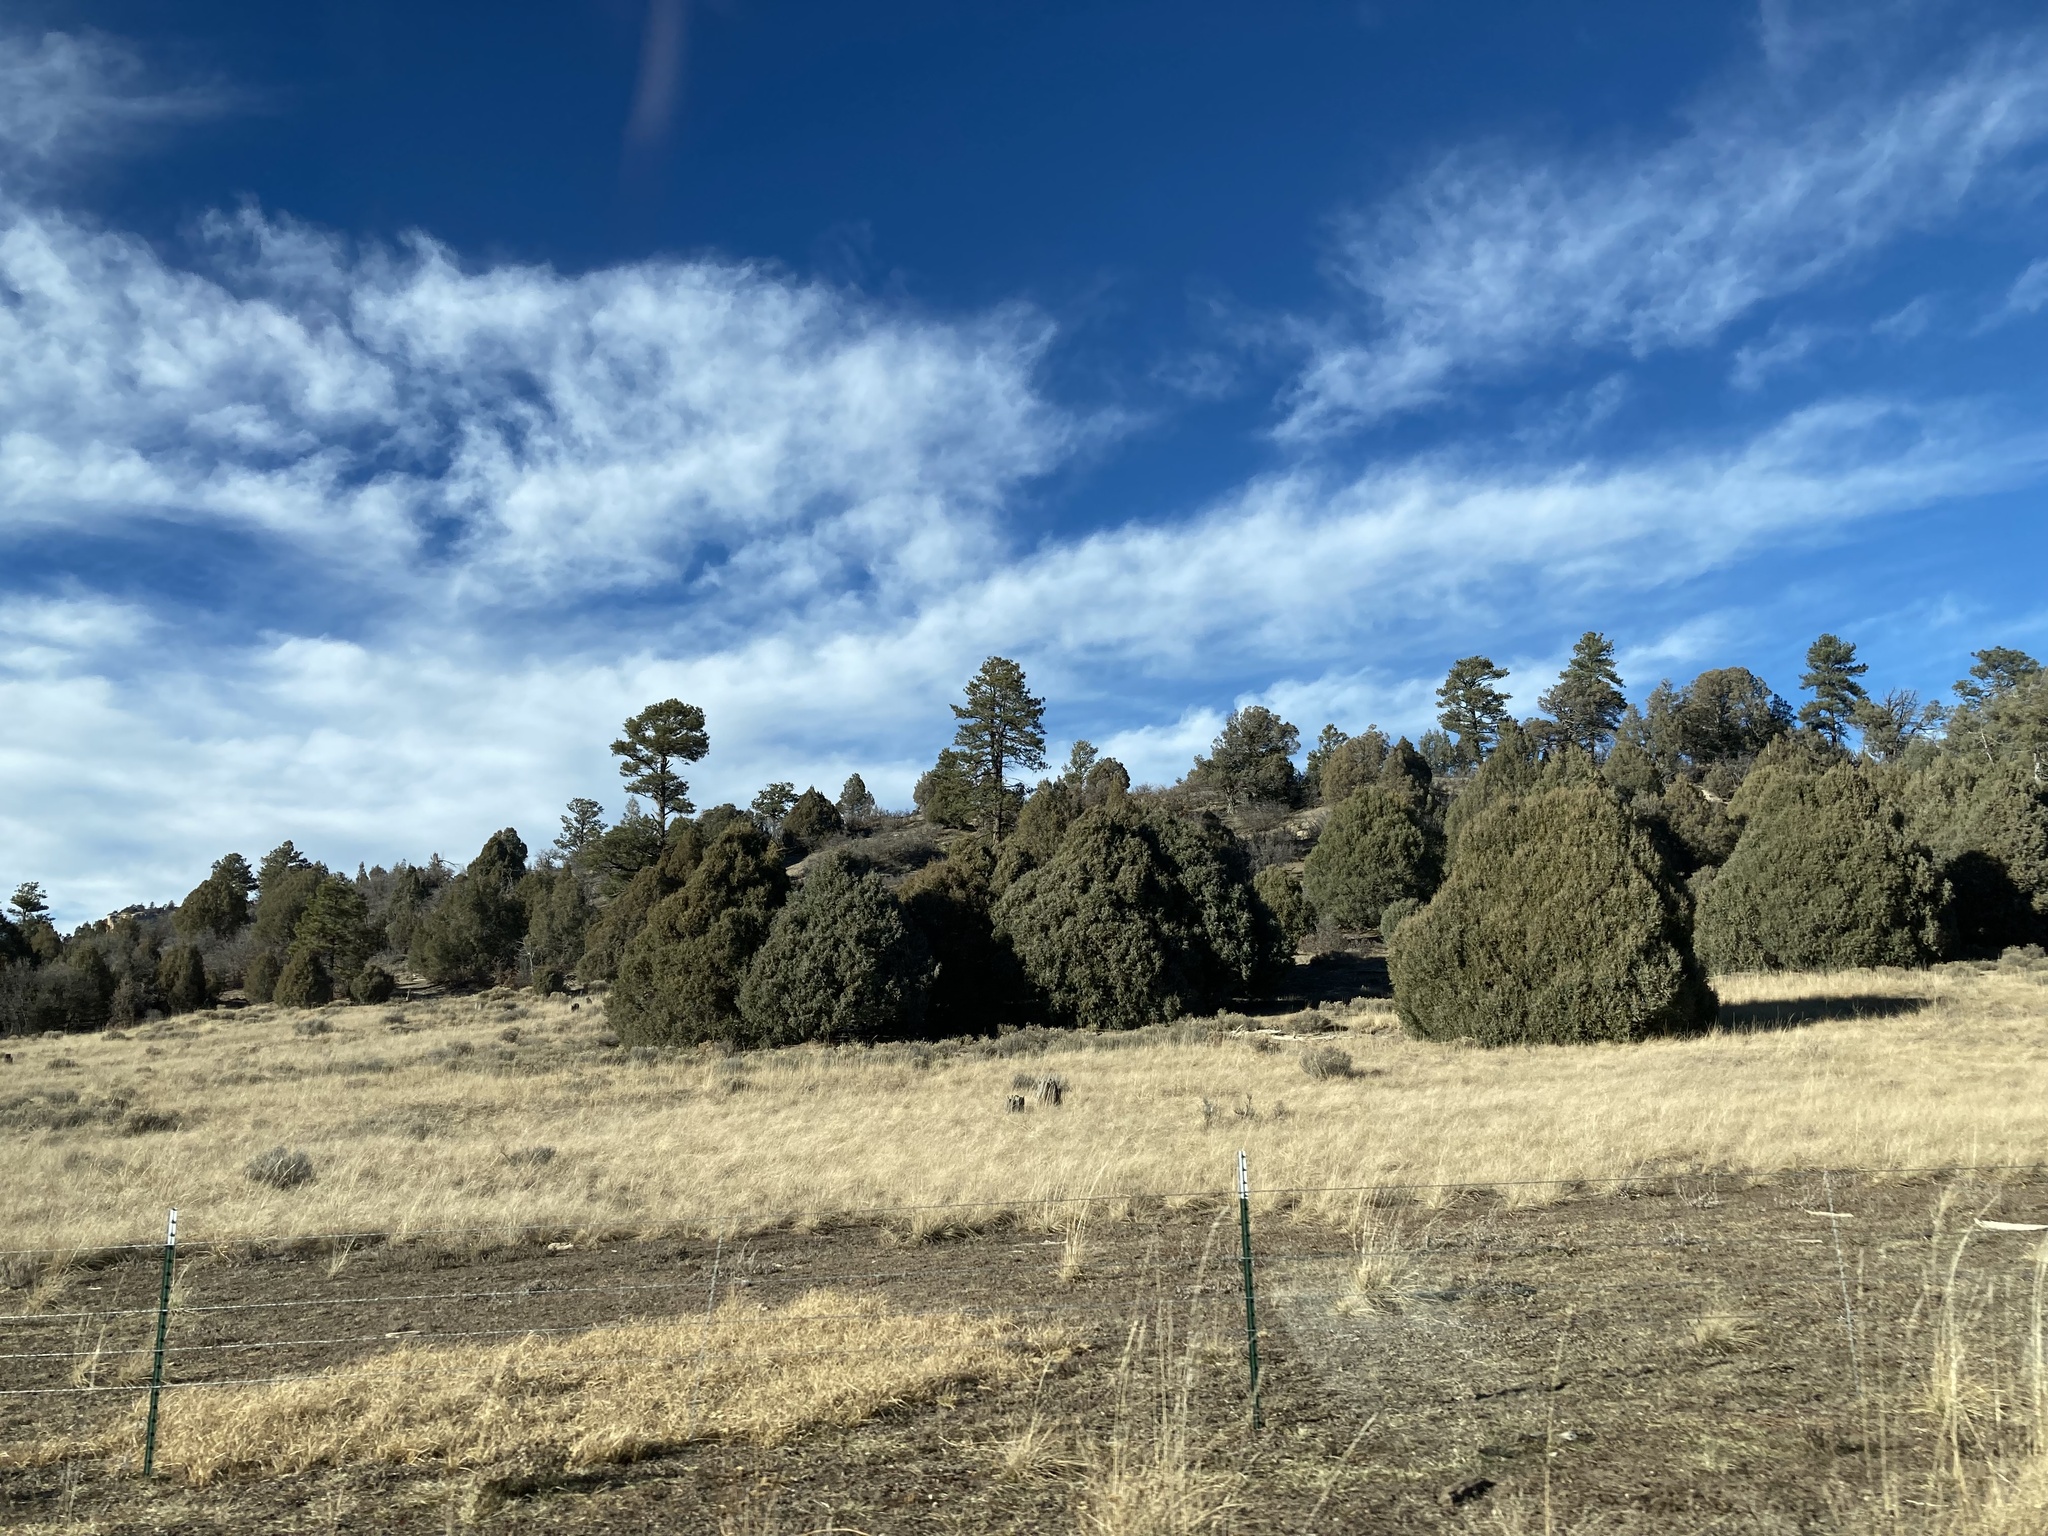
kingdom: Plantae
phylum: Tracheophyta
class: Pinopsida
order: Pinales
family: Cupressaceae
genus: Juniperus
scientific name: Juniperus
